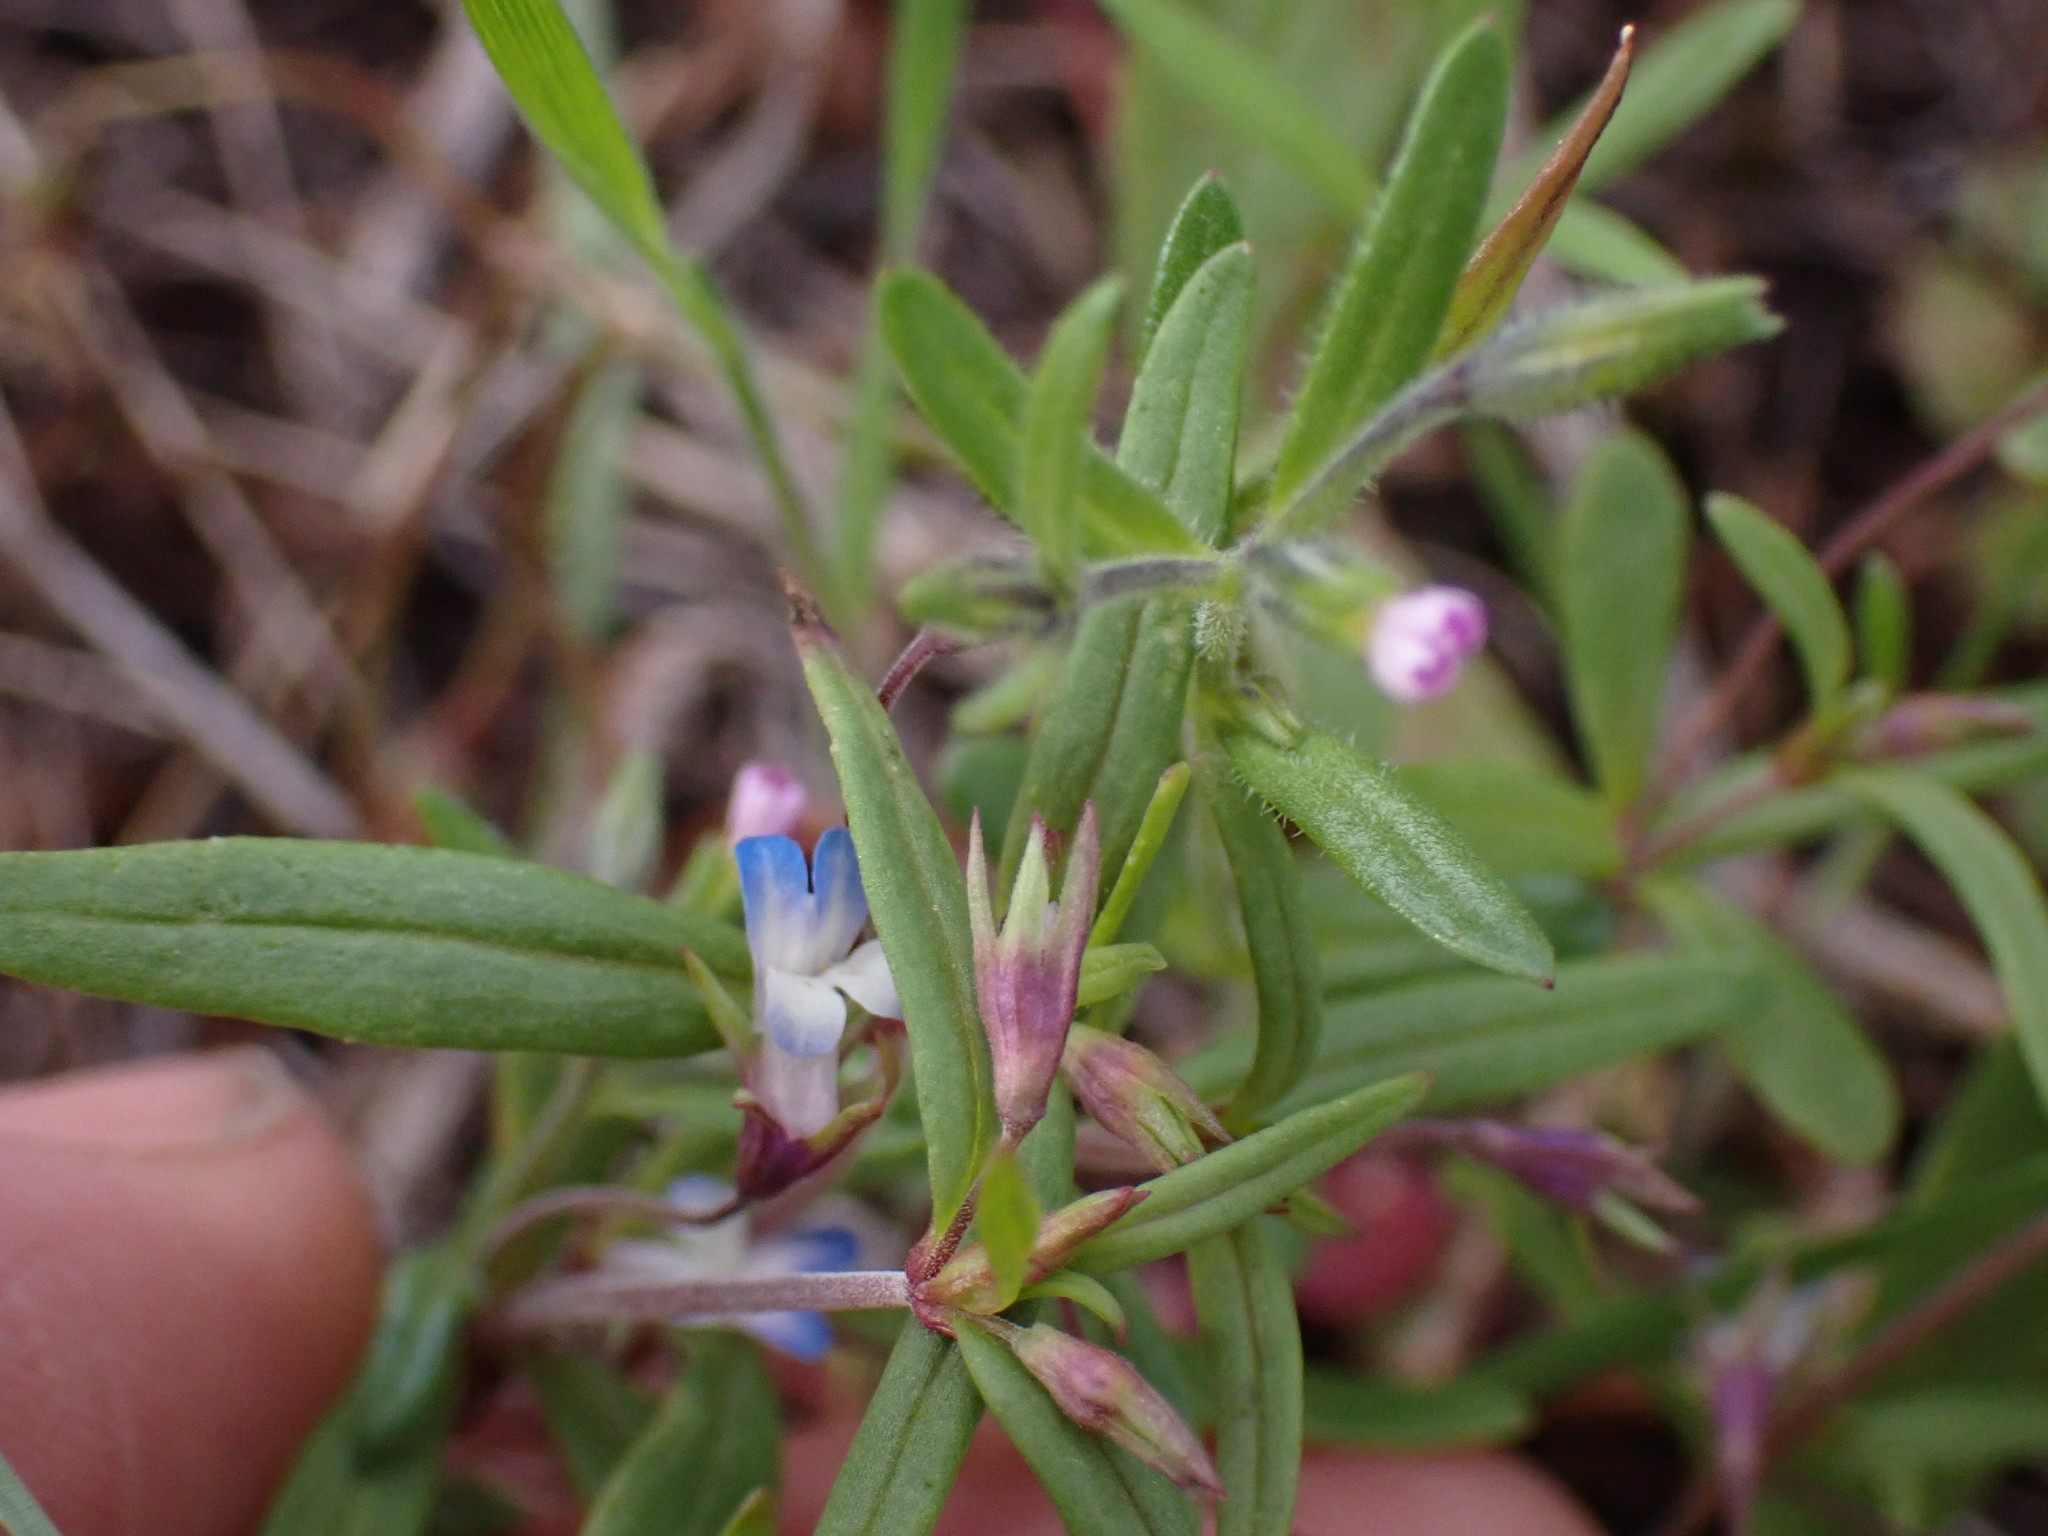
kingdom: Plantae
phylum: Tracheophyta
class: Magnoliopsida
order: Lamiales
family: Plantaginaceae
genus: Collinsia
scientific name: Collinsia parviflora
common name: Blue-lips
